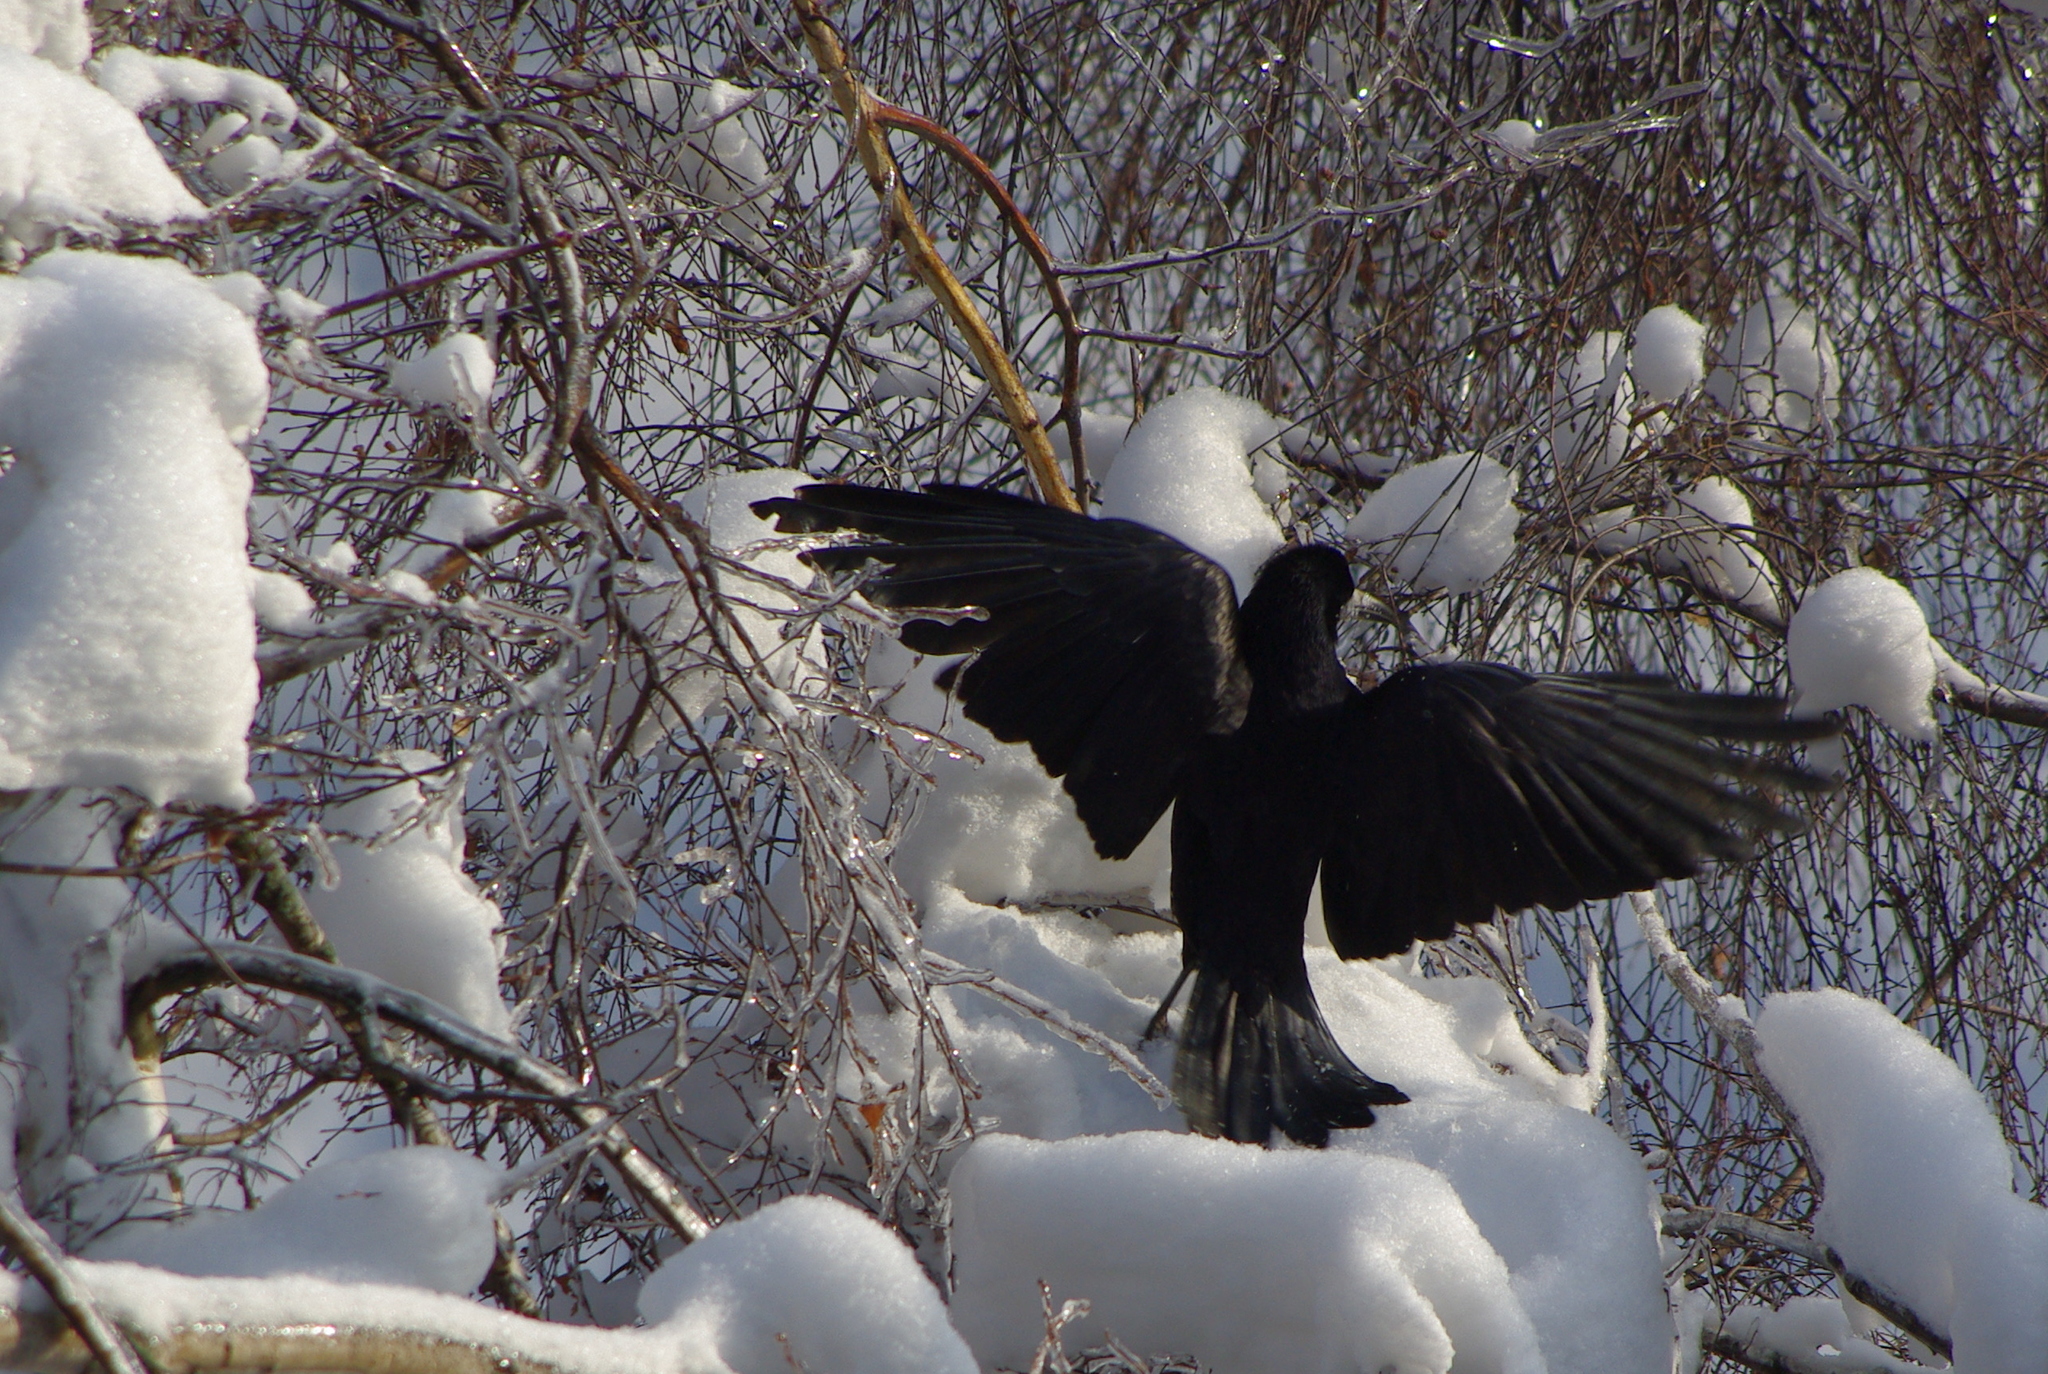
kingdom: Animalia
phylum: Chordata
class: Aves
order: Passeriformes
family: Corvidae
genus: Corvus
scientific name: Corvus frugilegus
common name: Rook
